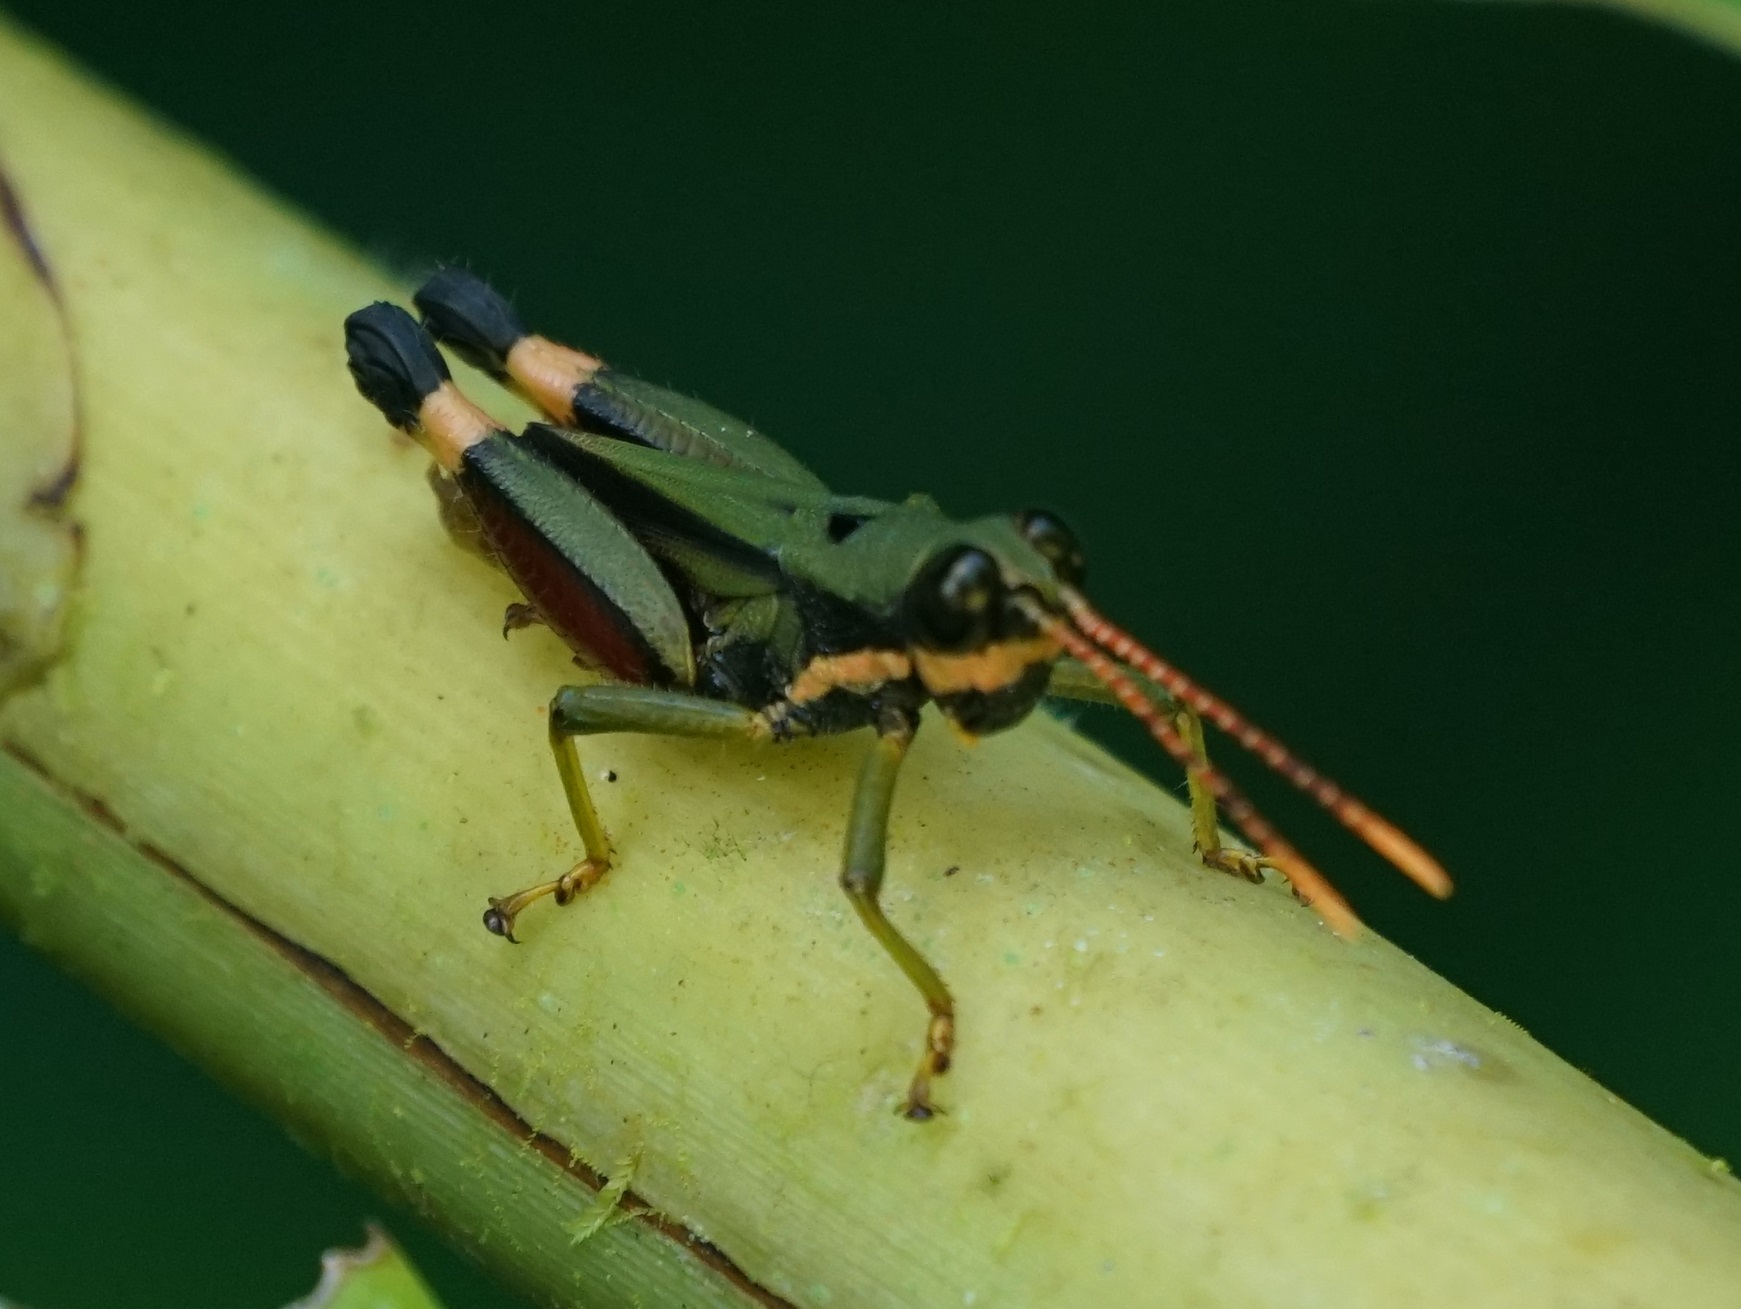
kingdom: Animalia
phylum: Arthropoda
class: Insecta
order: Orthoptera
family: Acrididae
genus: Traulia
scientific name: Traulia bimaculata
